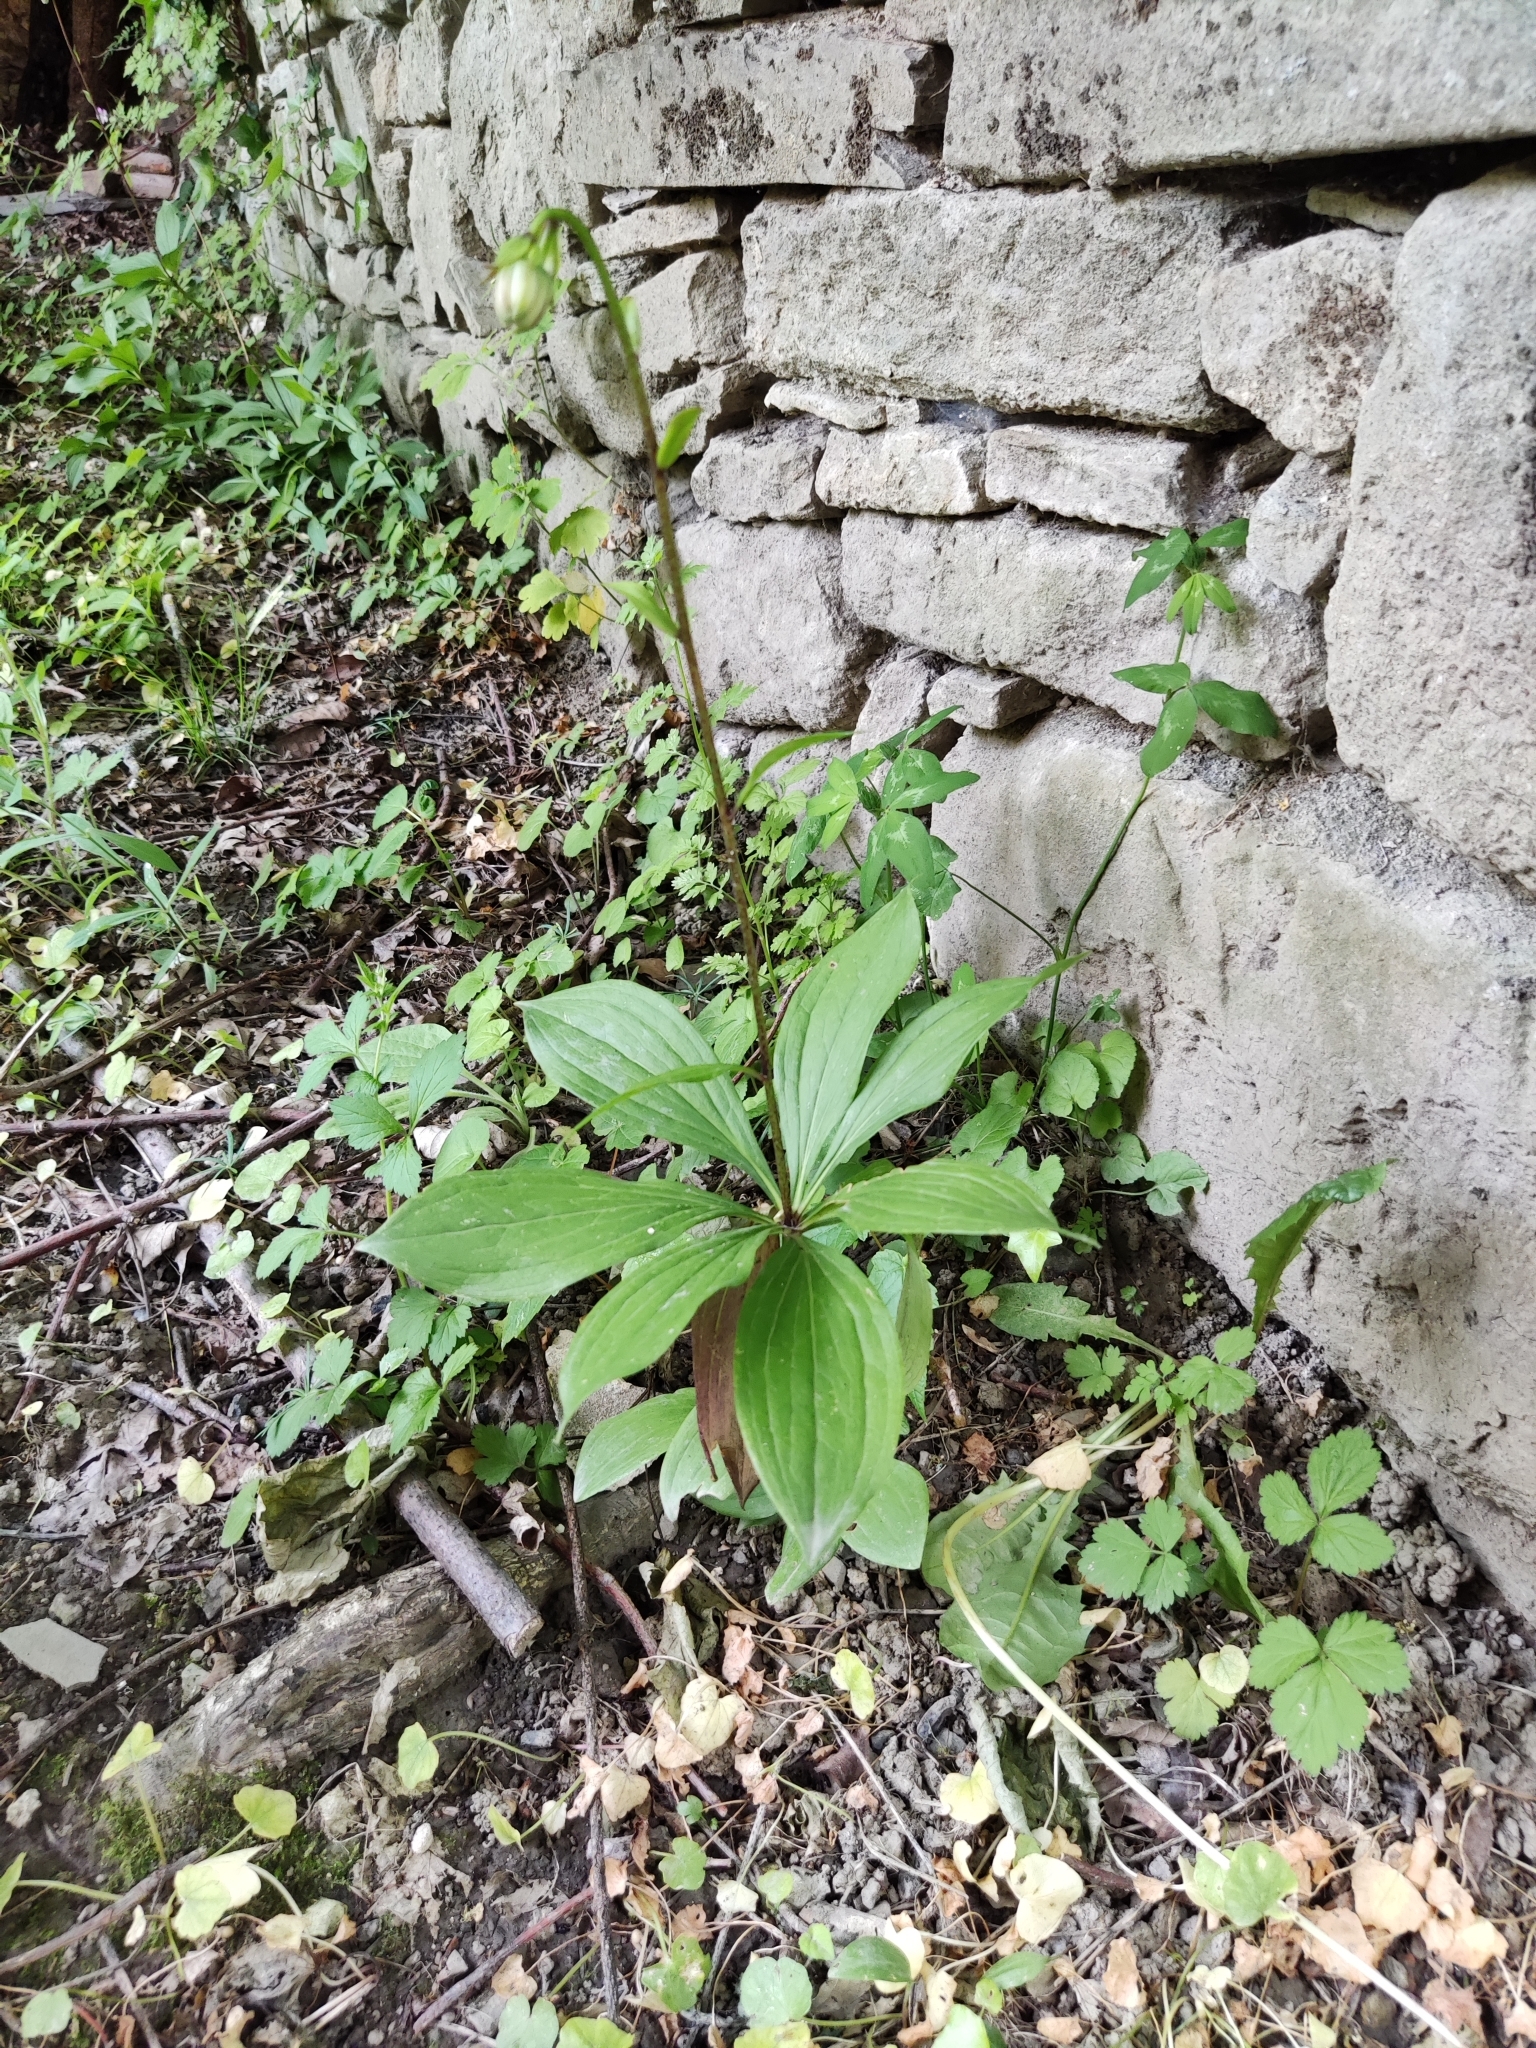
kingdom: Plantae
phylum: Tracheophyta
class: Liliopsida
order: Liliales
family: Liliaceae
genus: Lilium
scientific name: Lilium martagon
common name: Martagon lily
